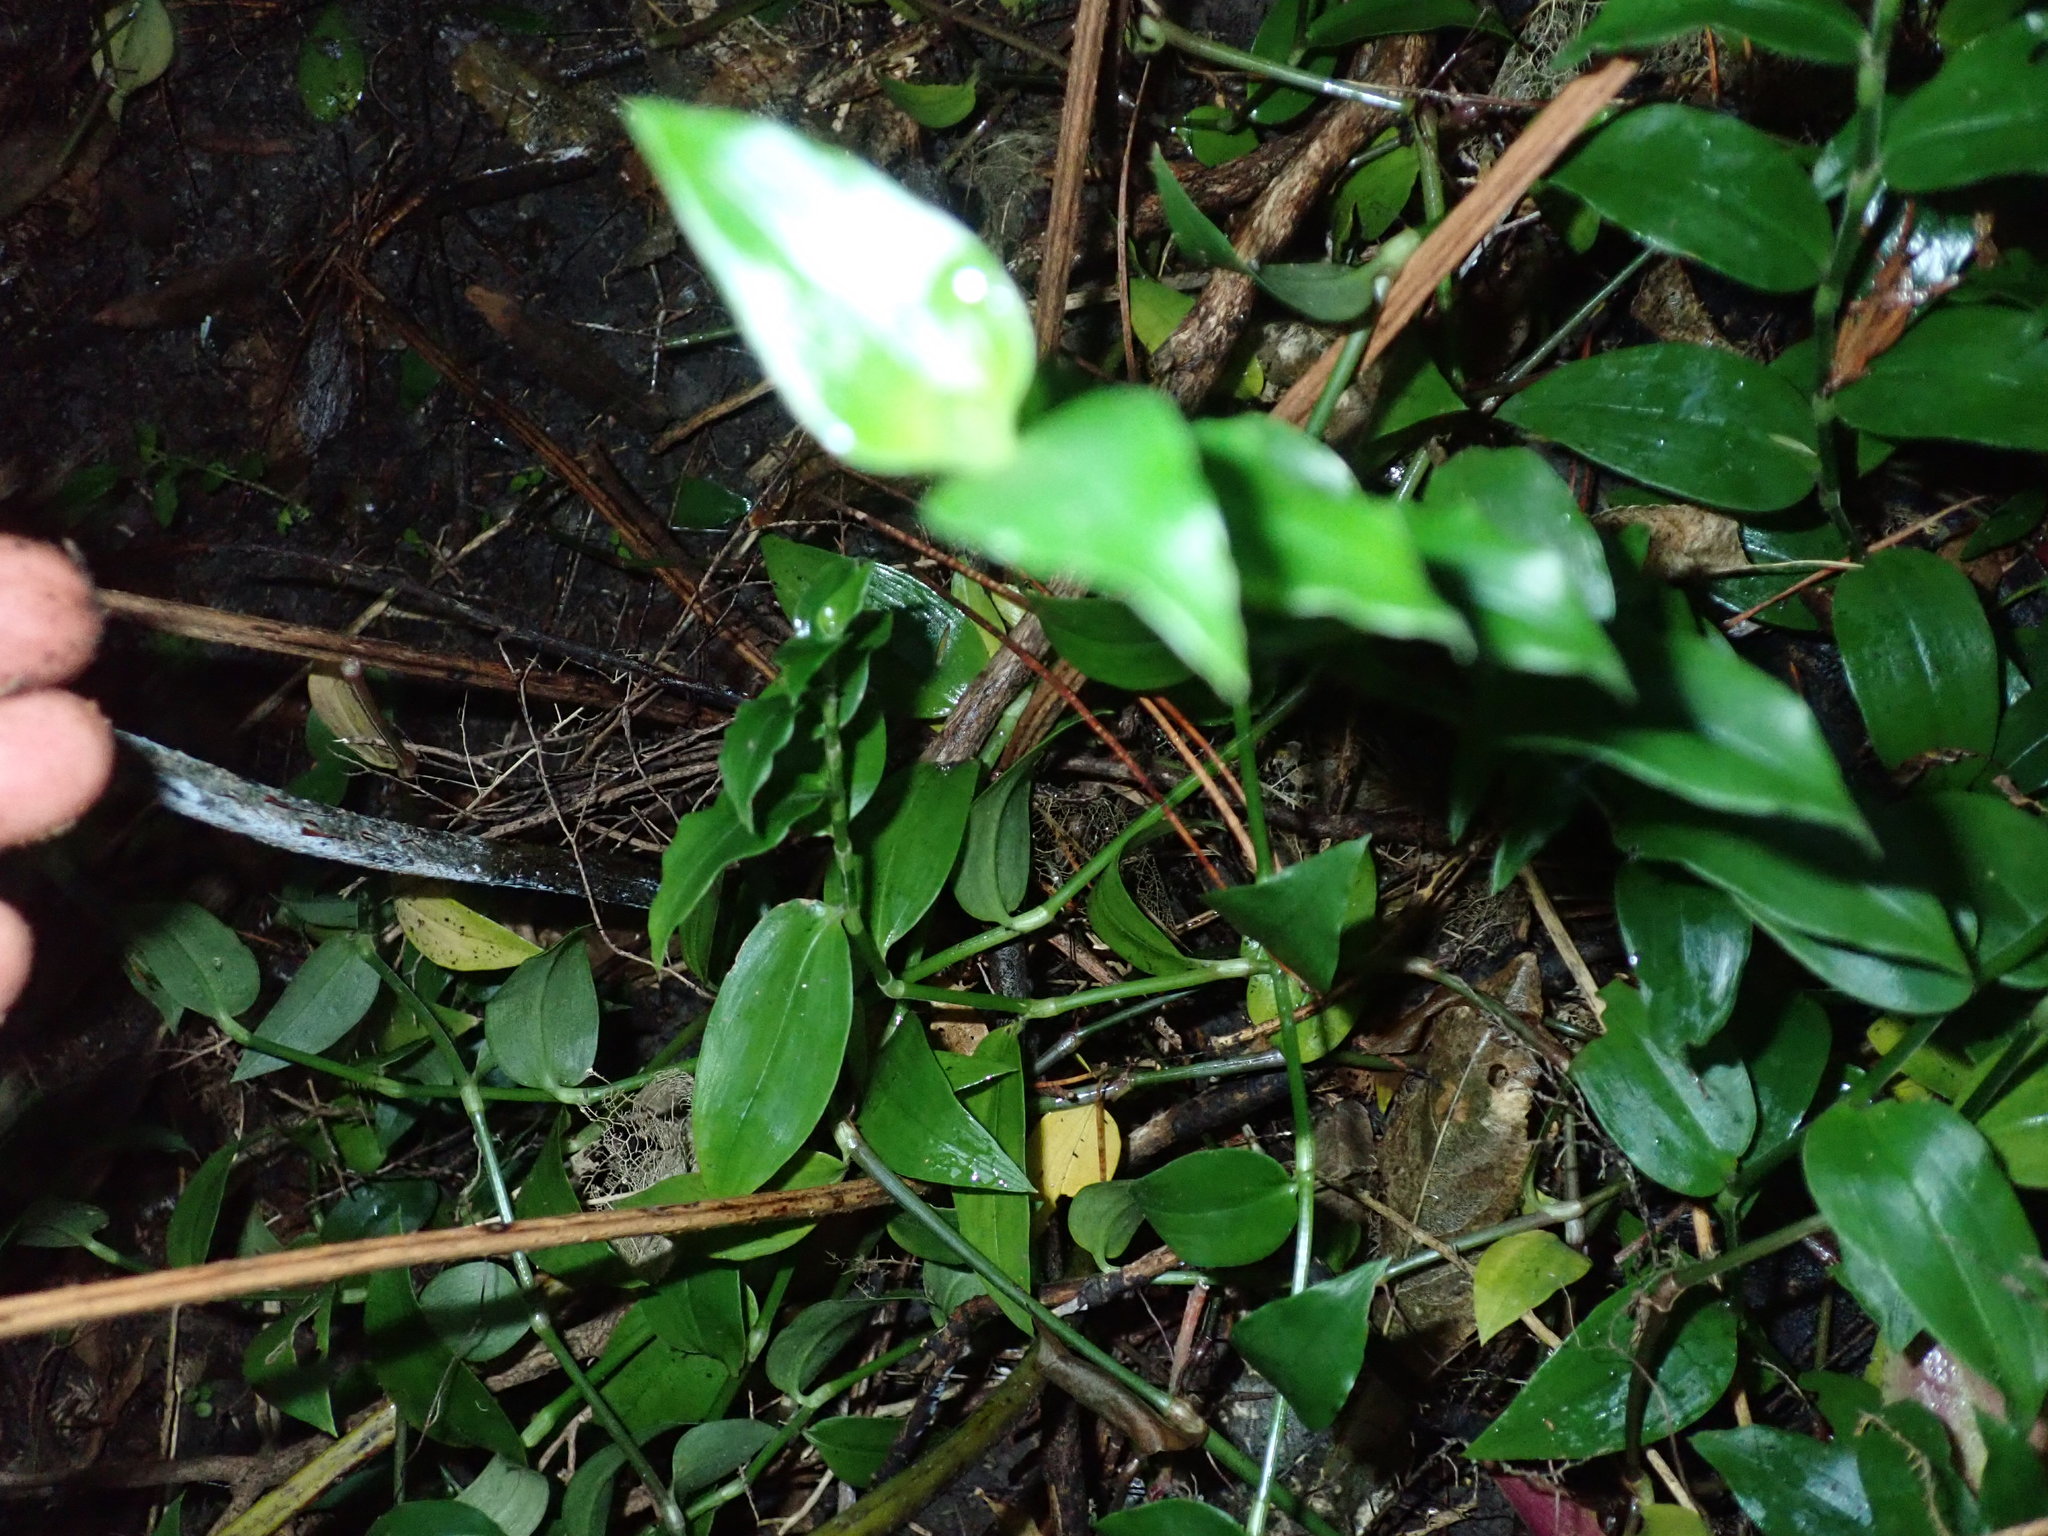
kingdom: Plantae
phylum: Tracheophyta
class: Liliopsida
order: Commelinales
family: Commelinaceae
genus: Tradescantia
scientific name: Tradescantia fluminensis
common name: Wandering-jew
